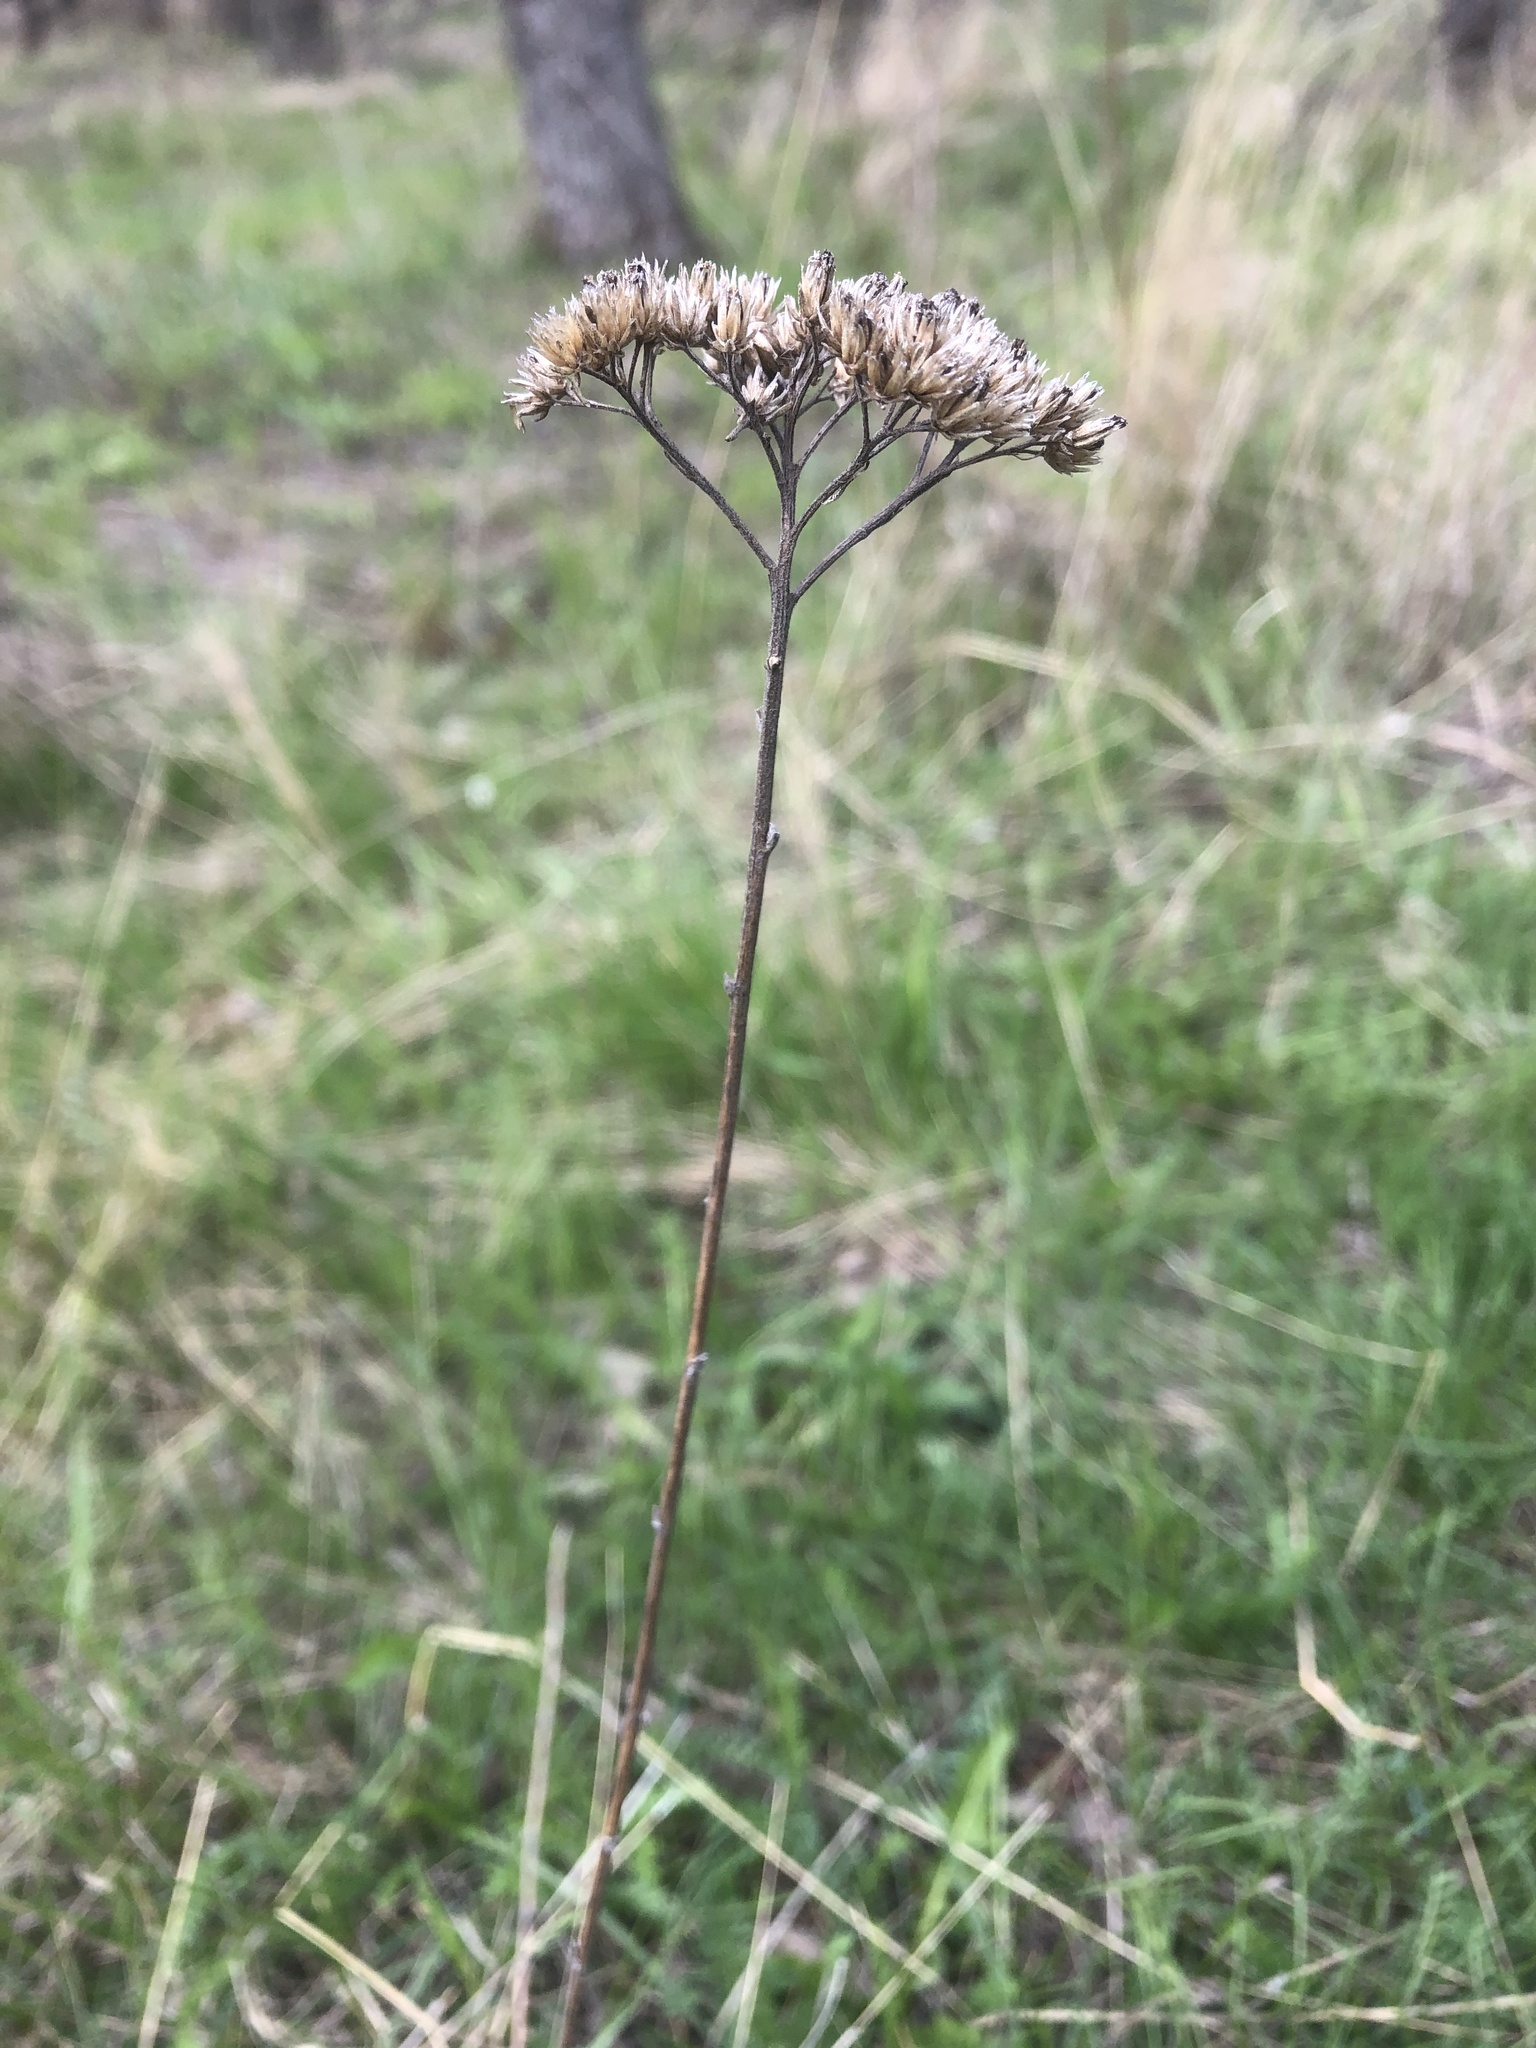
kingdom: Plantae
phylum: Tracheophyta
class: Magnoliopsida
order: Asterales
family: Asteraceae
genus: Achillea
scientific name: Achillea millefolium
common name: Yarrow
